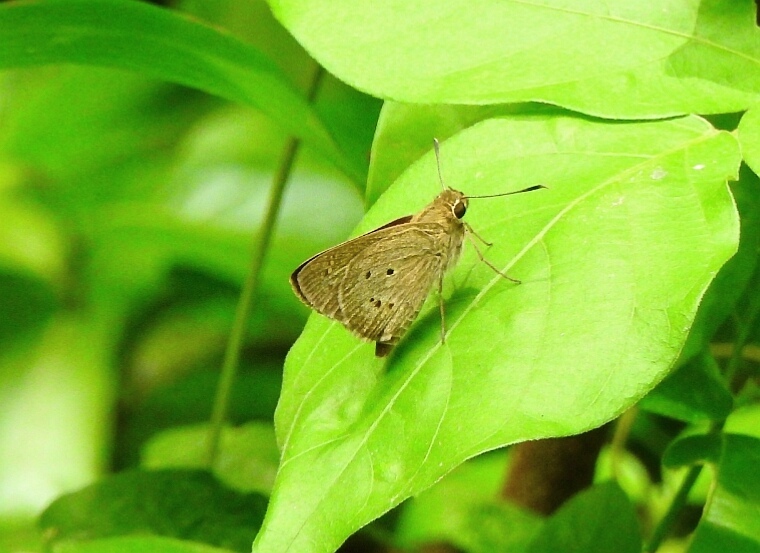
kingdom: Animalia
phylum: Arthropoda
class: Insecta
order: Lepidoptera
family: Hesperiidae
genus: Suastus
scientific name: Suastus gremius
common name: Indian palm bob
